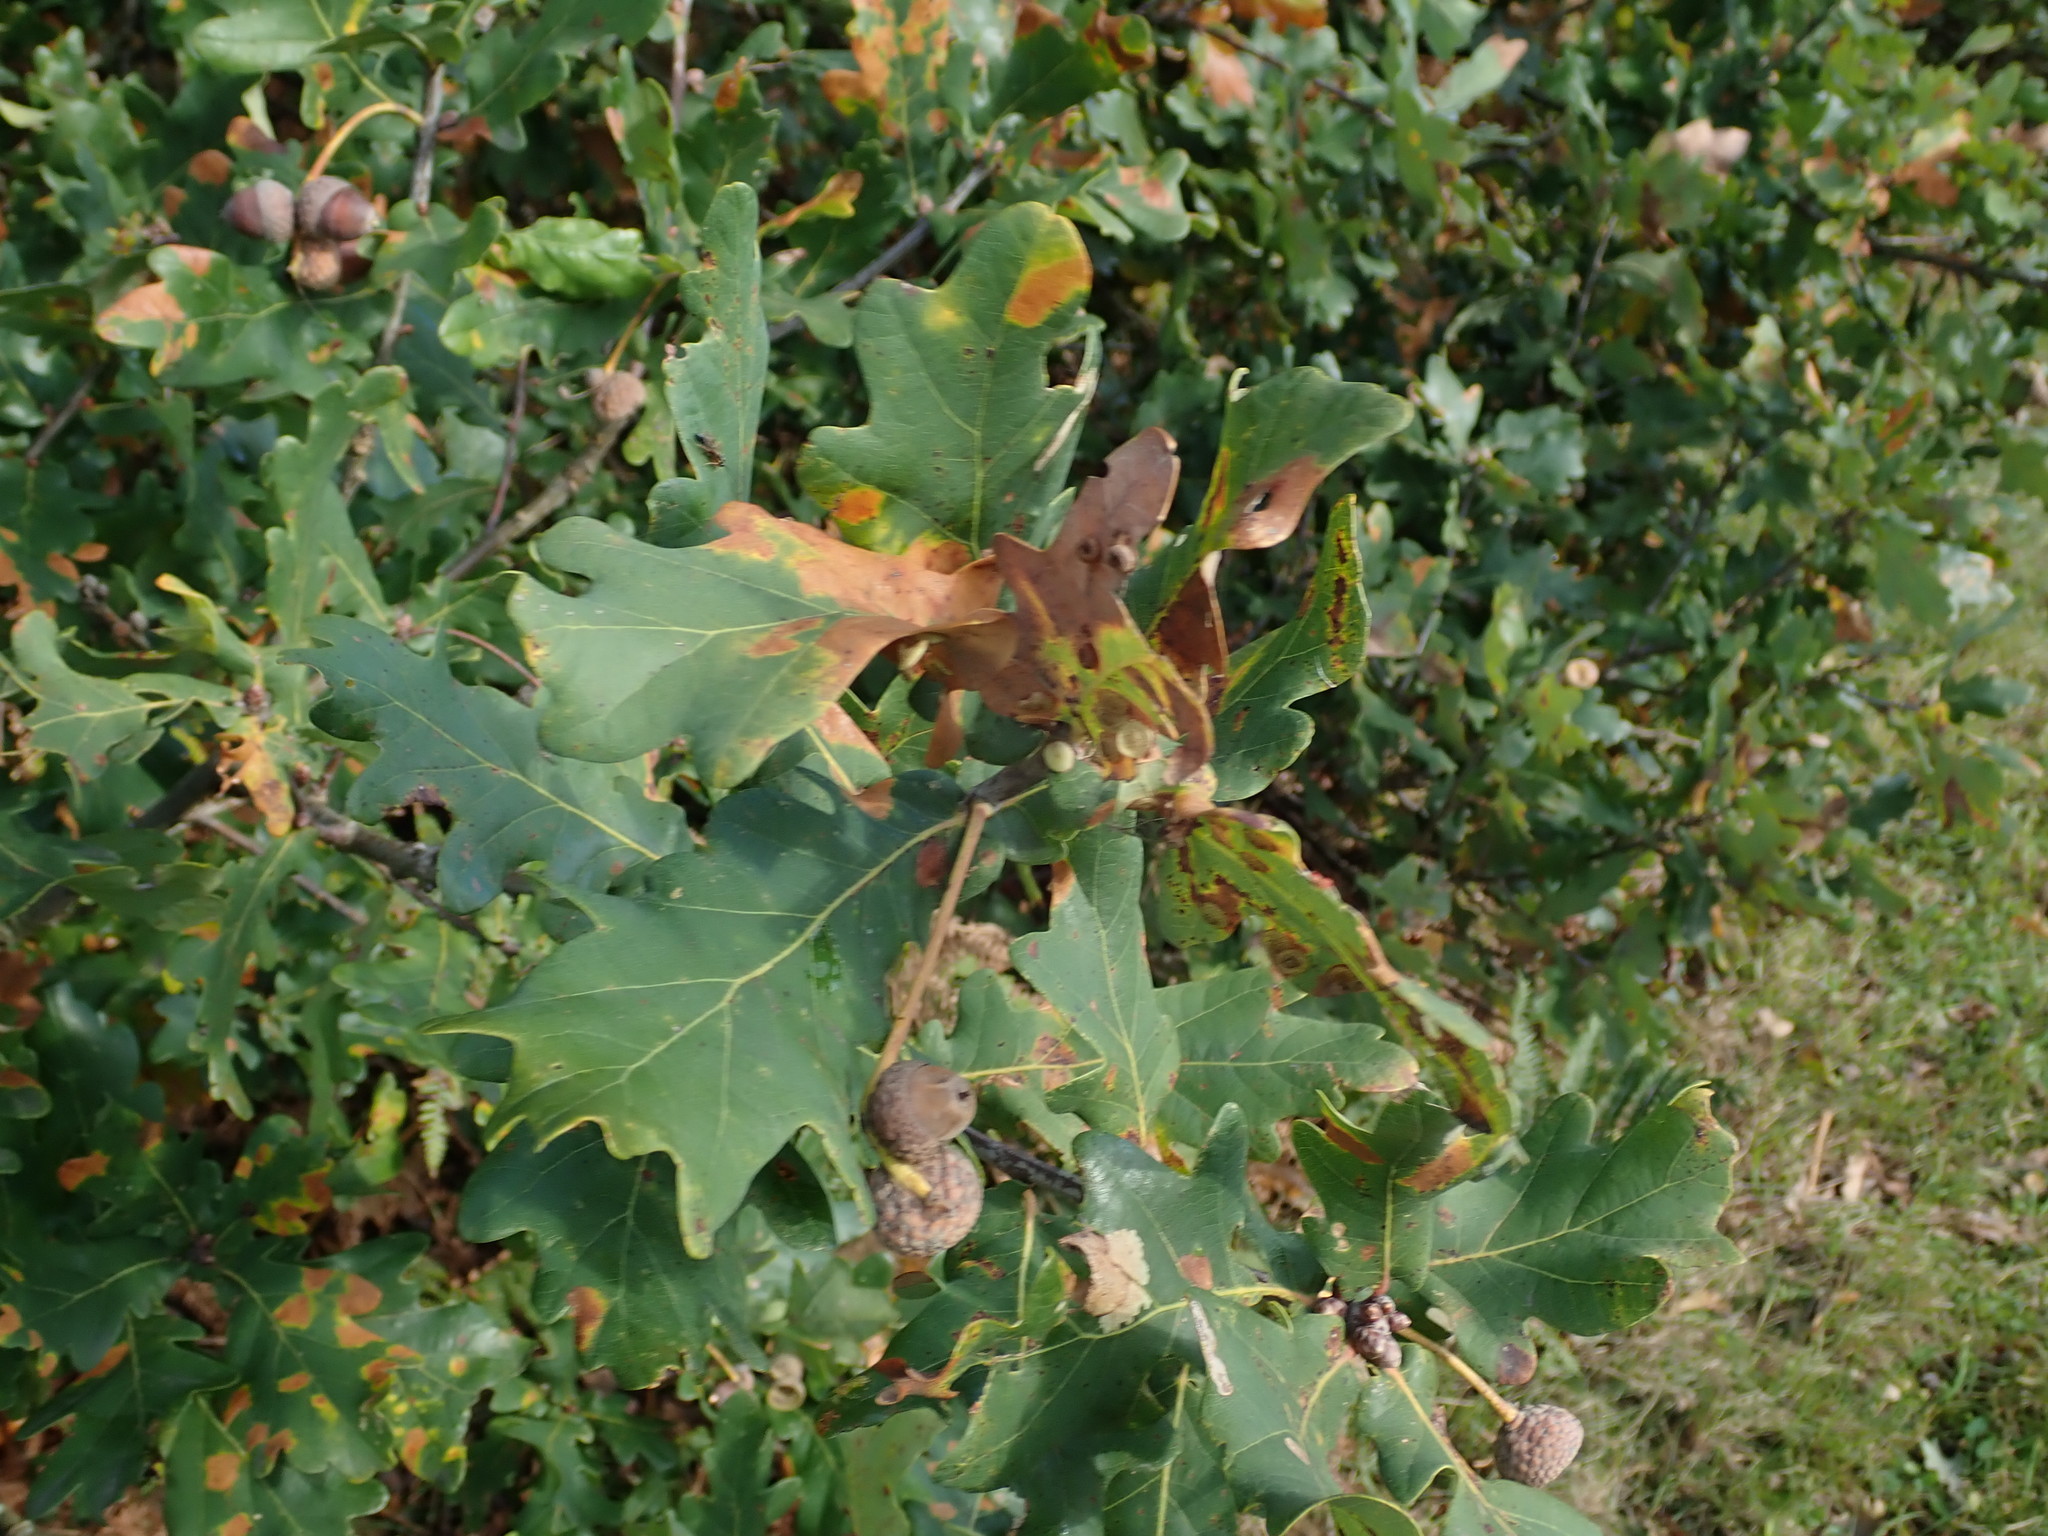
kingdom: Plantae
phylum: Tracheophyta
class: Magnoliopsida
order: Fagales
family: Fagaceae
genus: Quercus
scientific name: Quercus robur
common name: Pedunculate oak
